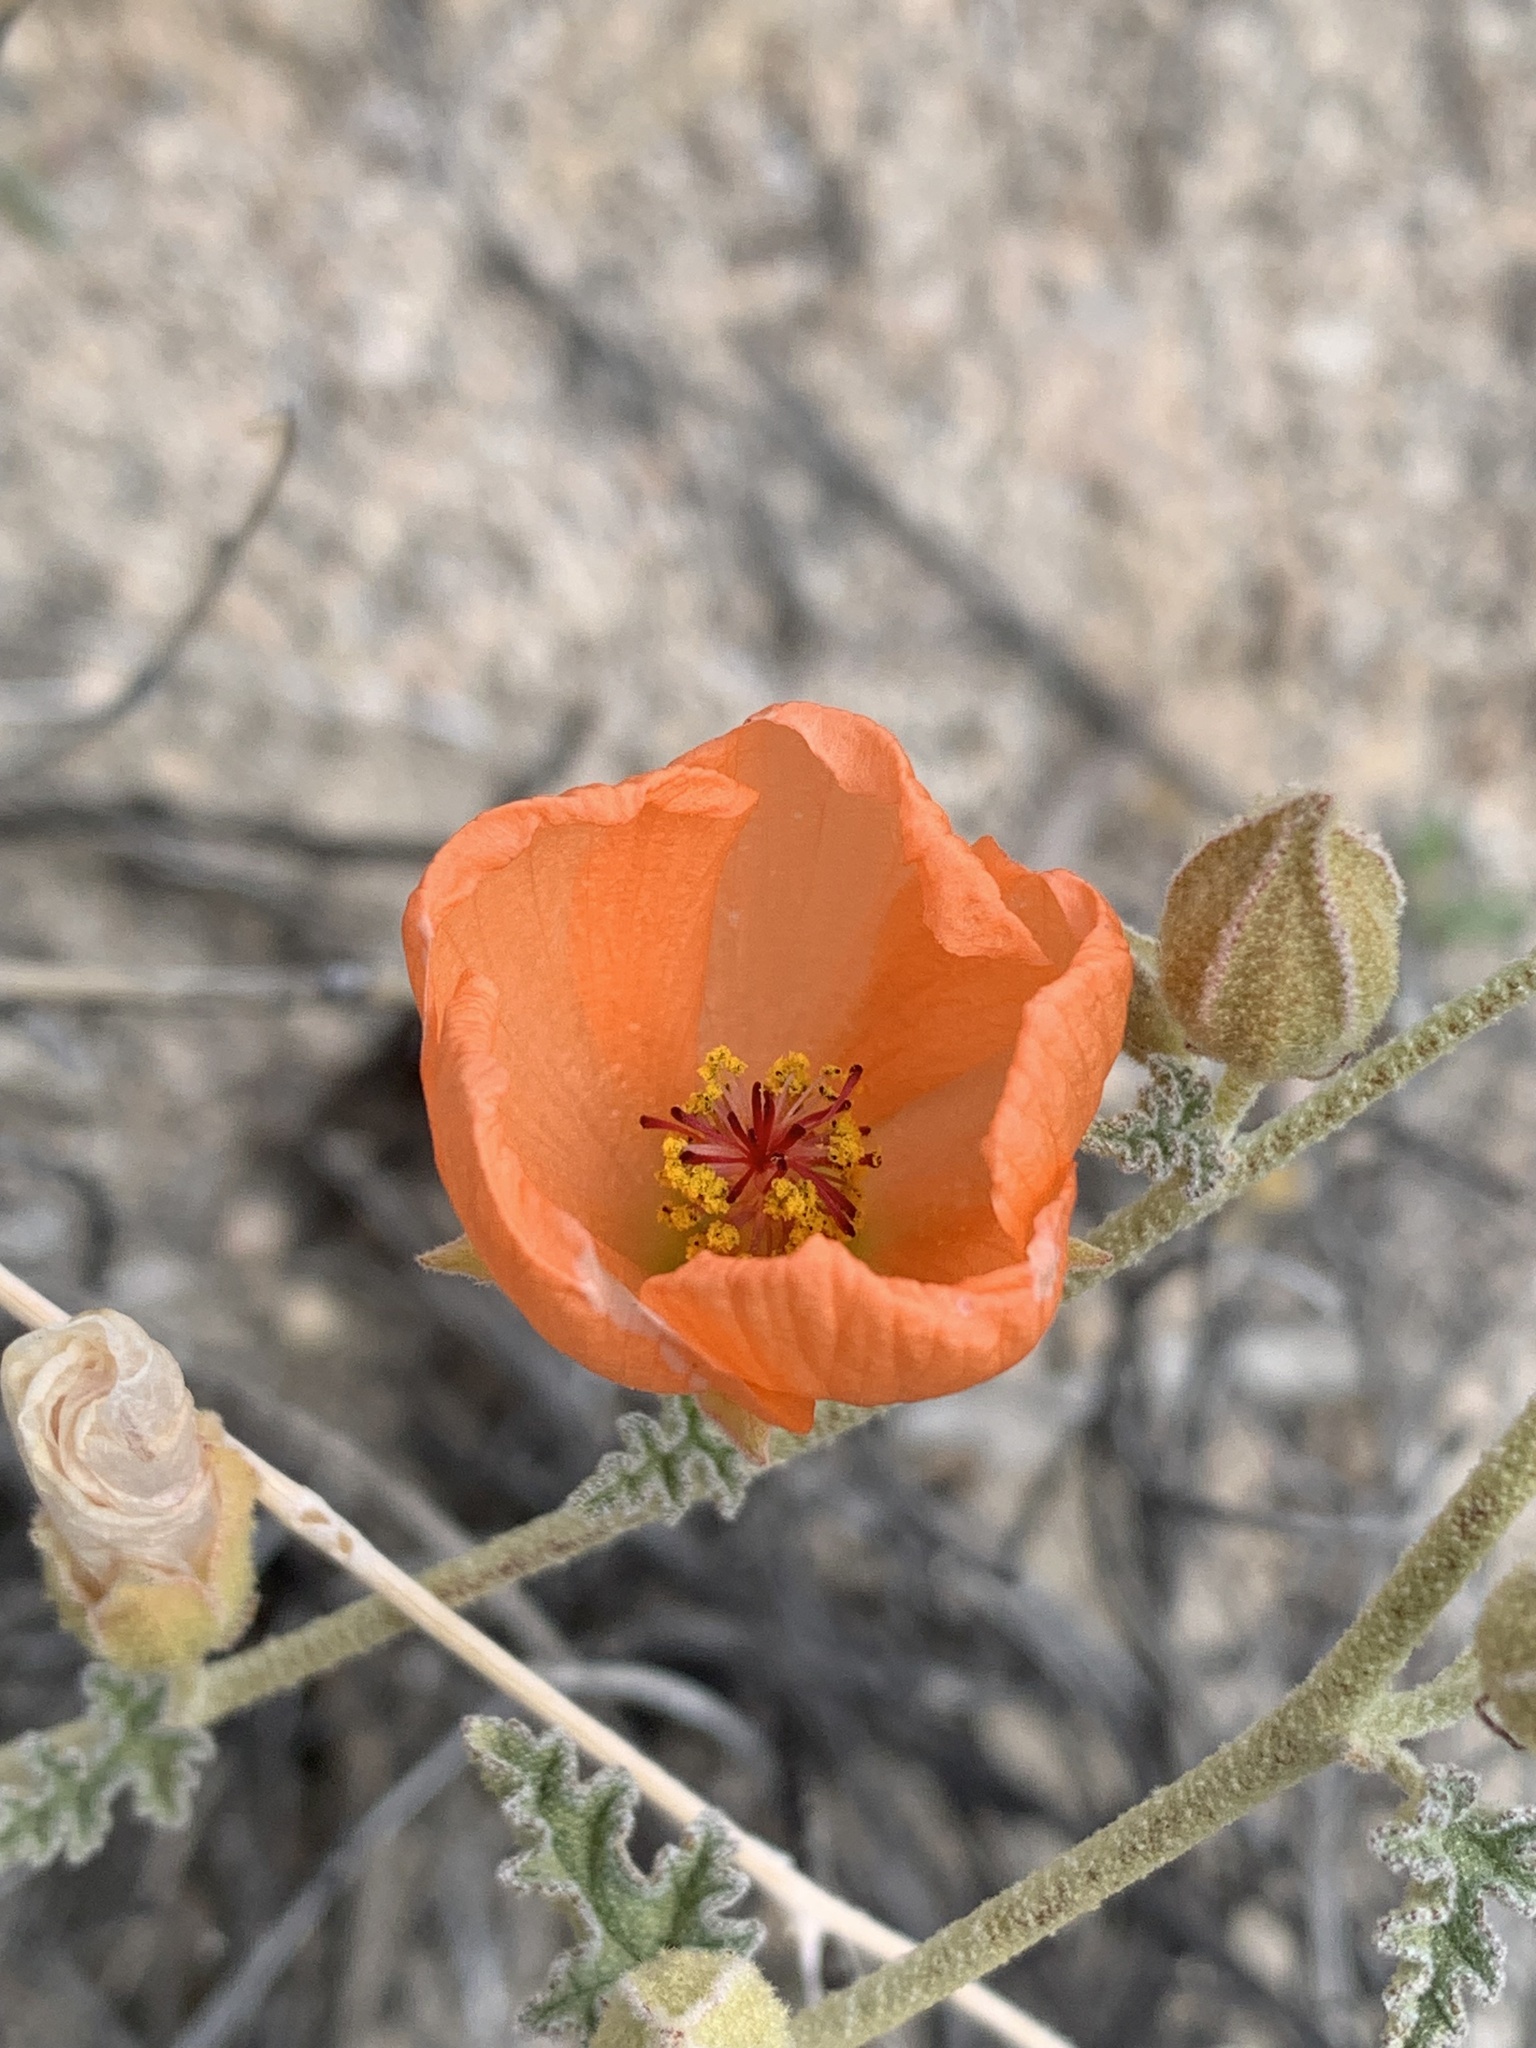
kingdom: Plantae
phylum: Tracheophyta
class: Magnoliopsida
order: Malvales
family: Malvaceae
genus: Sphaeralcea
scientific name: Sphaeralcea ambigua
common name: Apricot globe-mallow
